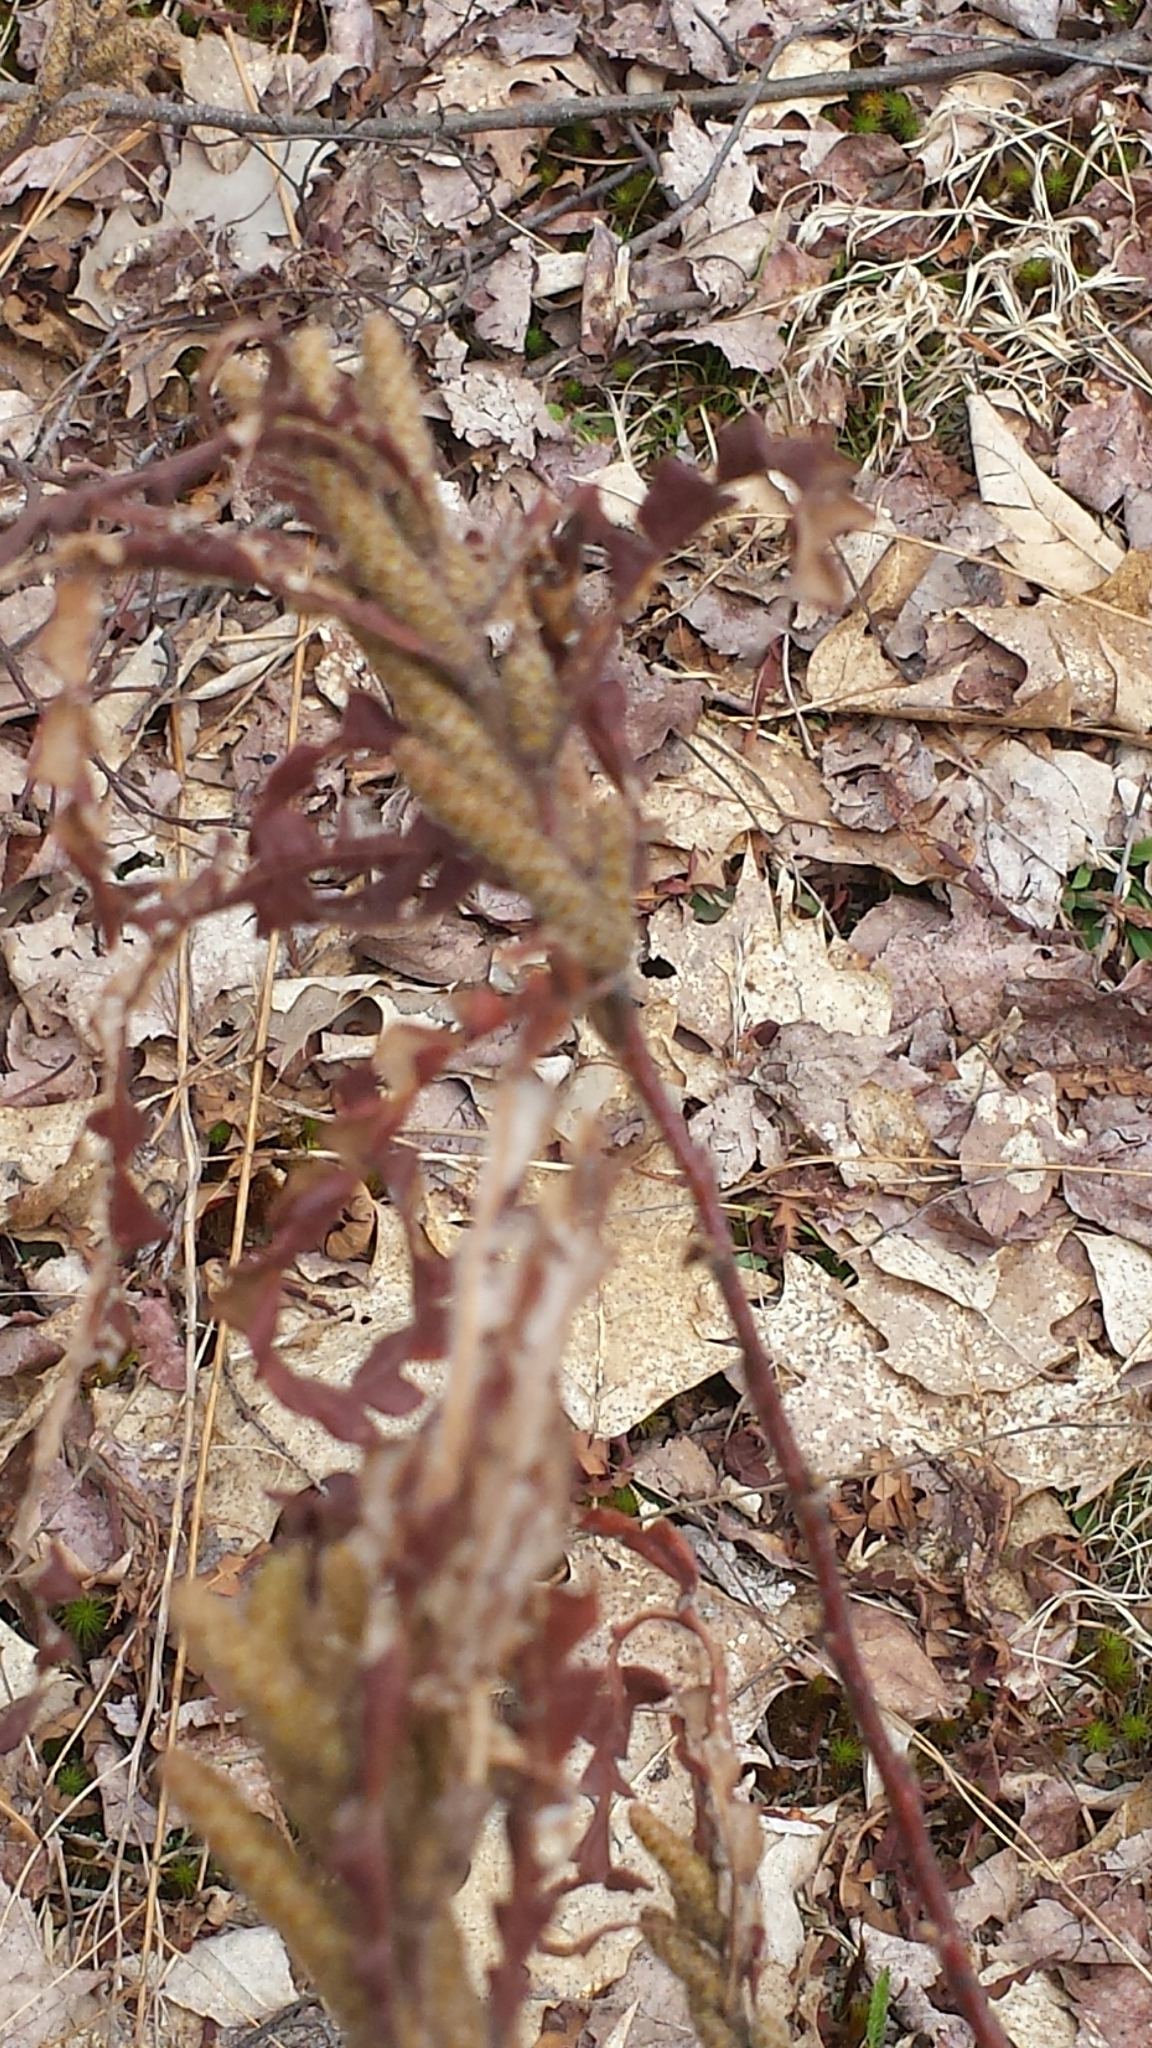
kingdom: Plantae
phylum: Tracheophyta
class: Magnoliopsida
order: Fagales
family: Myricaceae
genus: Comptonia
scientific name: Comptonia peregrina
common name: Sweet-fern
